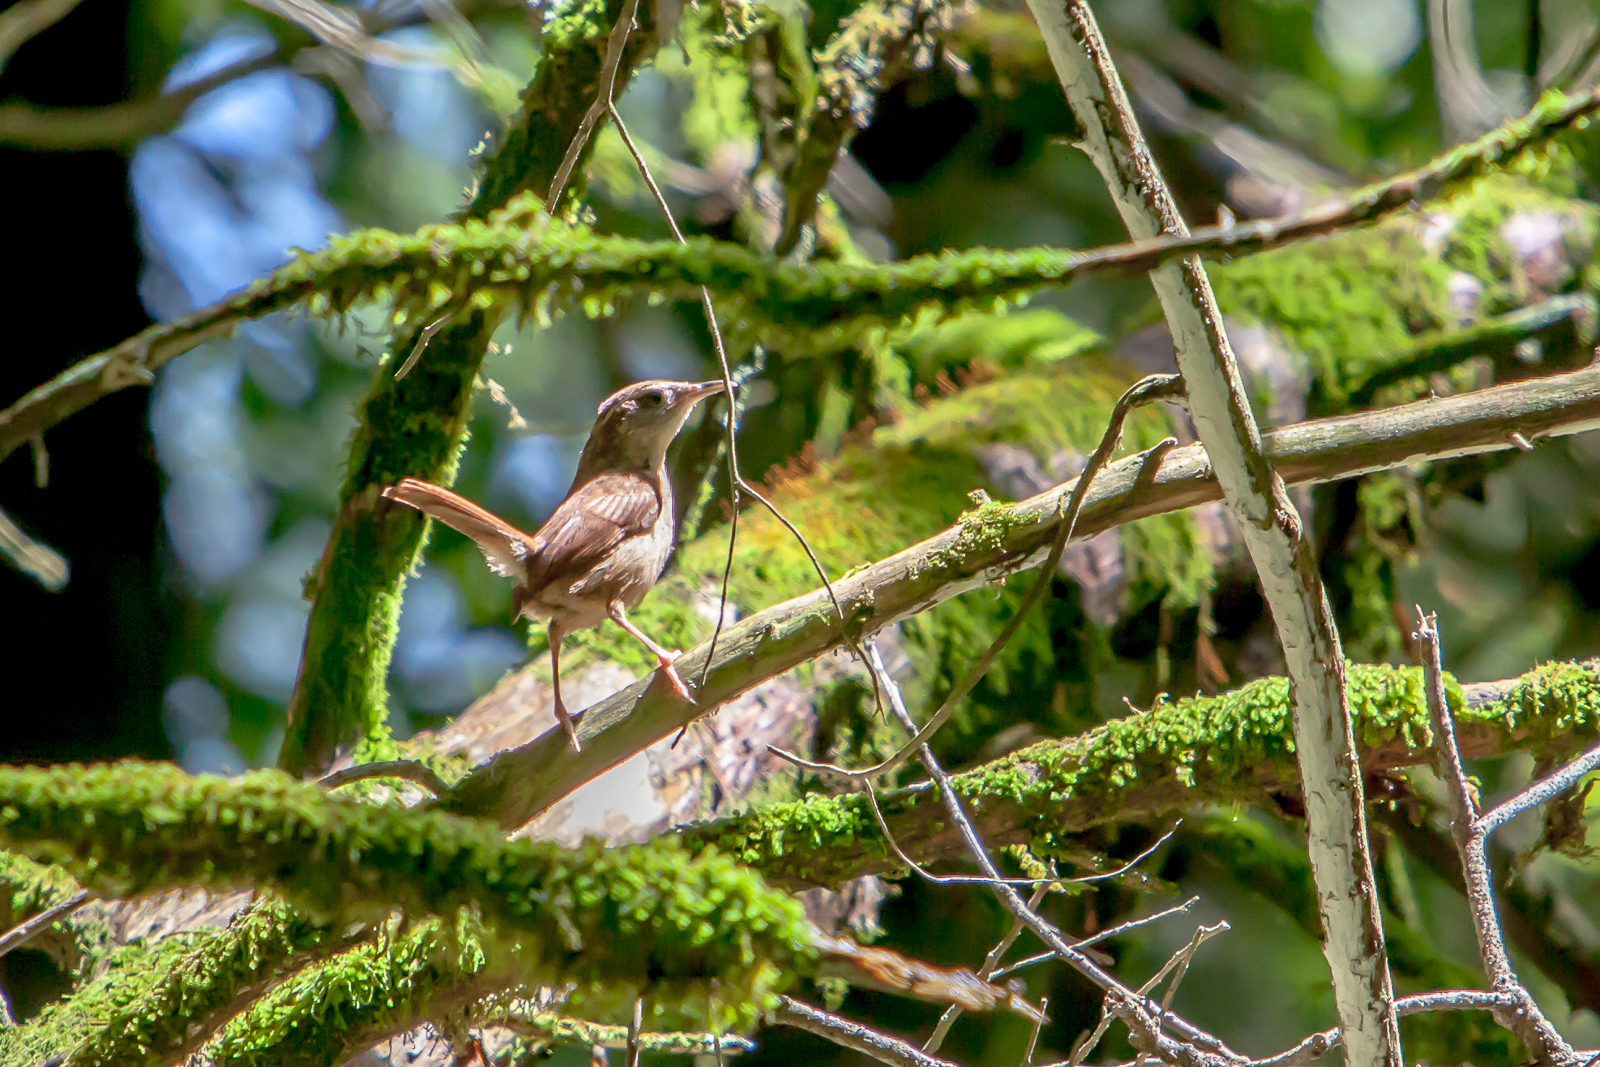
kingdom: Animalia
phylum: Chordata
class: Aves
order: Passeriformes
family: Troglodytidae
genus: Thryothorus
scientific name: Thryothorus ludovicianus
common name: Carolina wren
